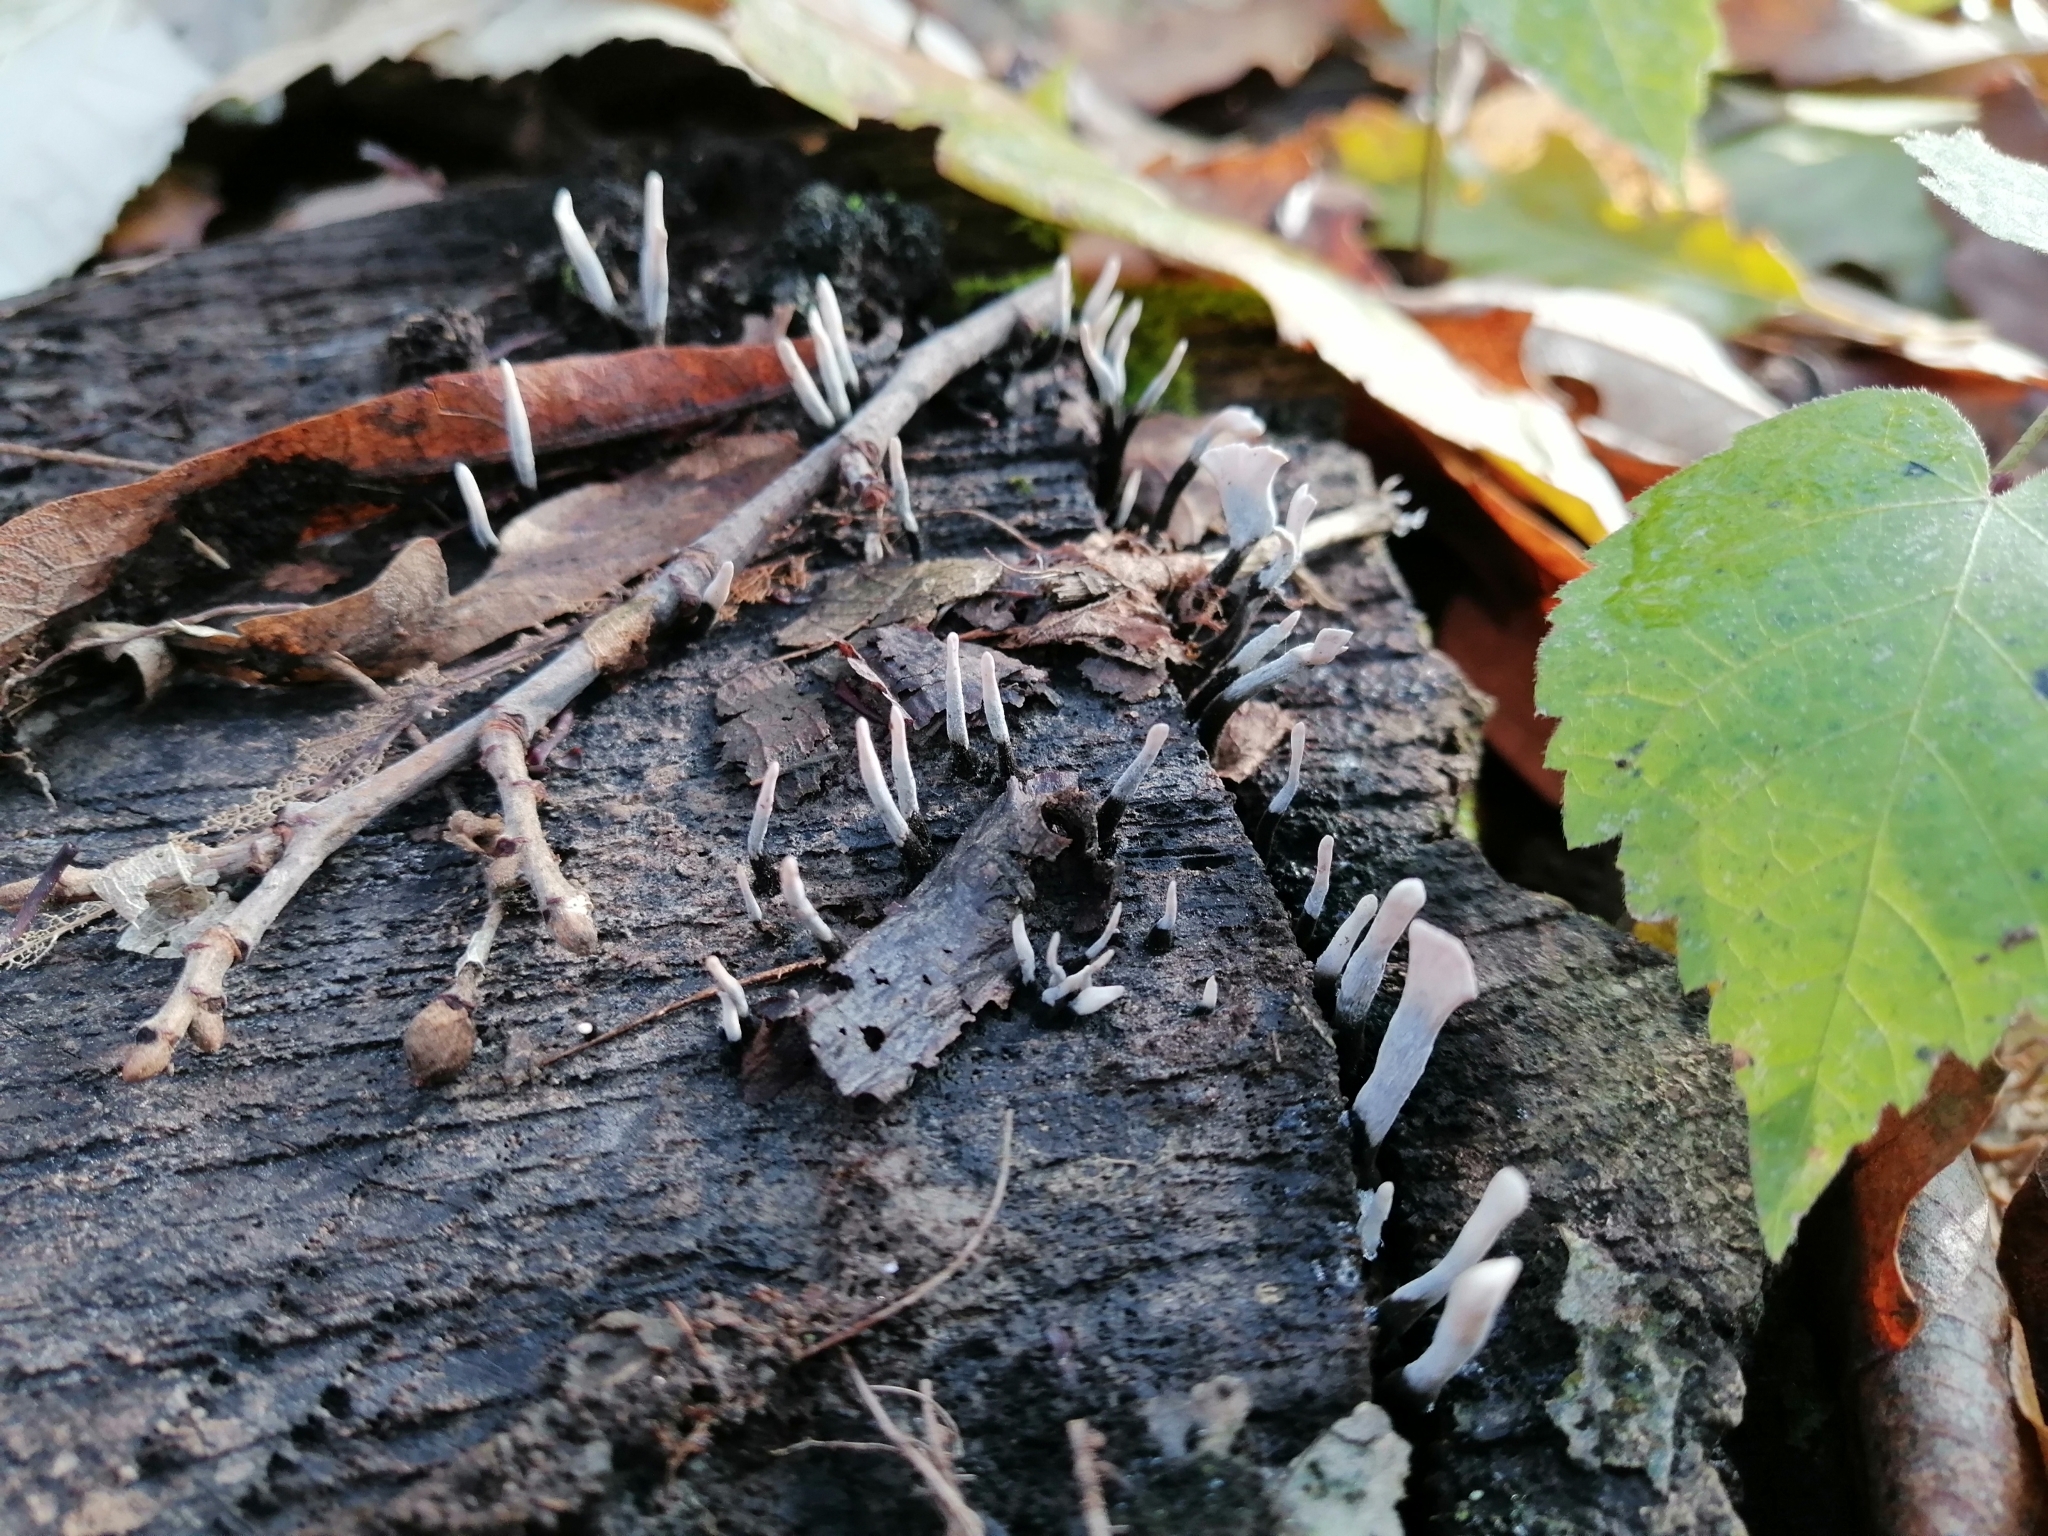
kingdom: Fungi
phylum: Ascomycota
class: Sordariomycetes
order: Xylariales
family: Xylariaceae
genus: Xylaria
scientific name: Xylaria hypoxylon
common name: Candle-snuff fungus
